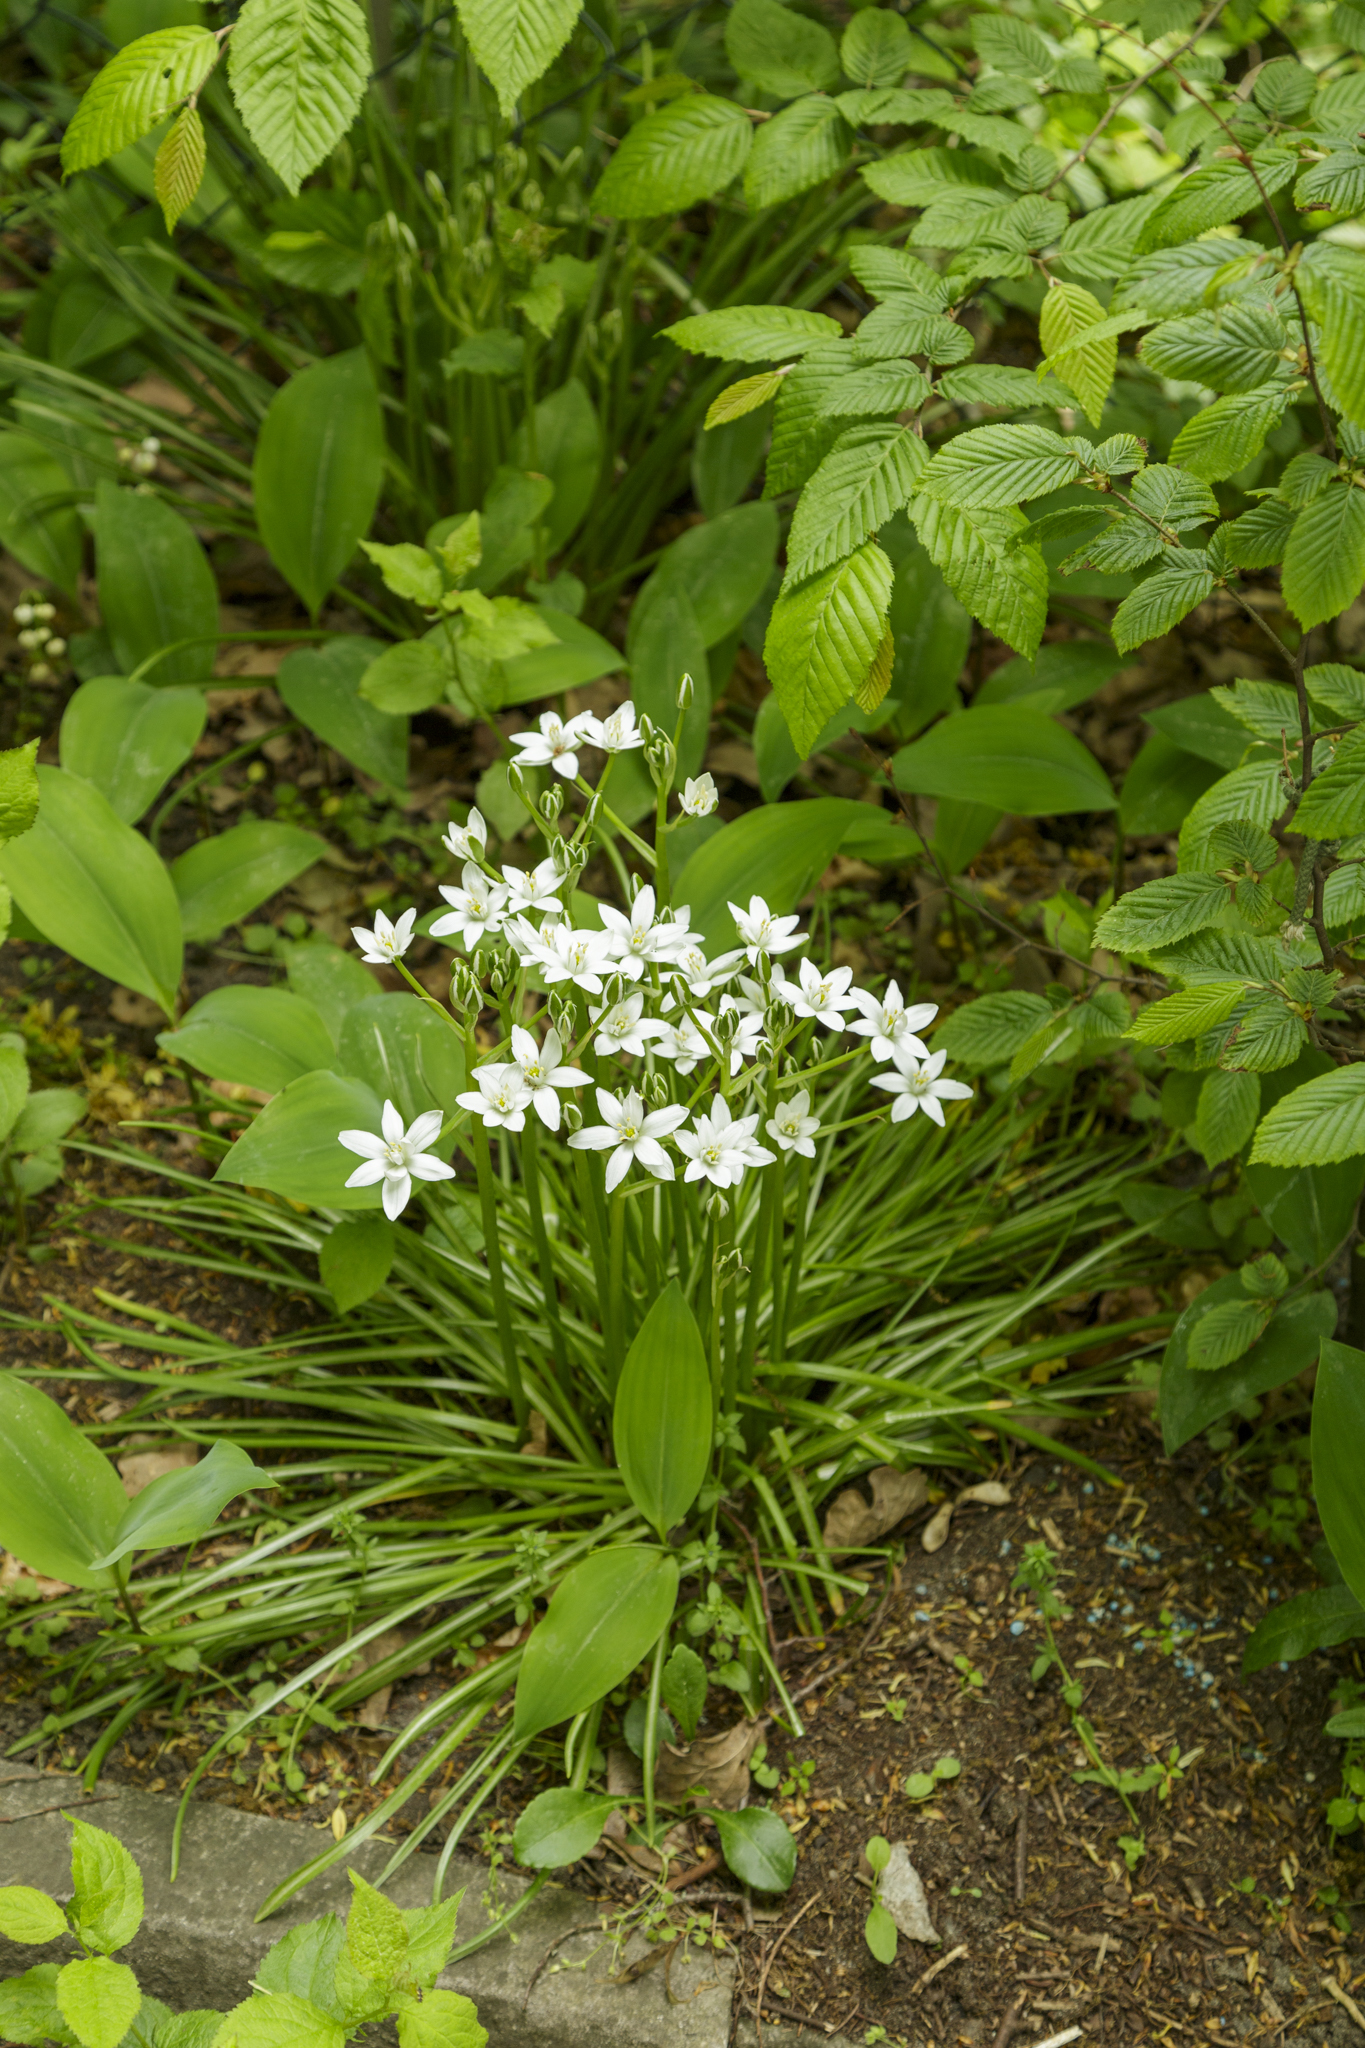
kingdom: Plantae
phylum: Tracheophyta
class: Liliopsida
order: Asparagales
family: Asparagaceae
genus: Ornithogalum
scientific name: Ornithogalum umbellatum
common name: Garden star-of-bethlehem
